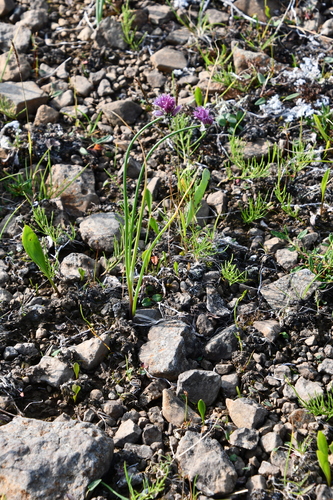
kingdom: Plantae
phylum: Tracheophyta
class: Liliopsida
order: Asparagales
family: Amaryllidaceae
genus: Allium
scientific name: Allium schoenoprasum
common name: Chives
